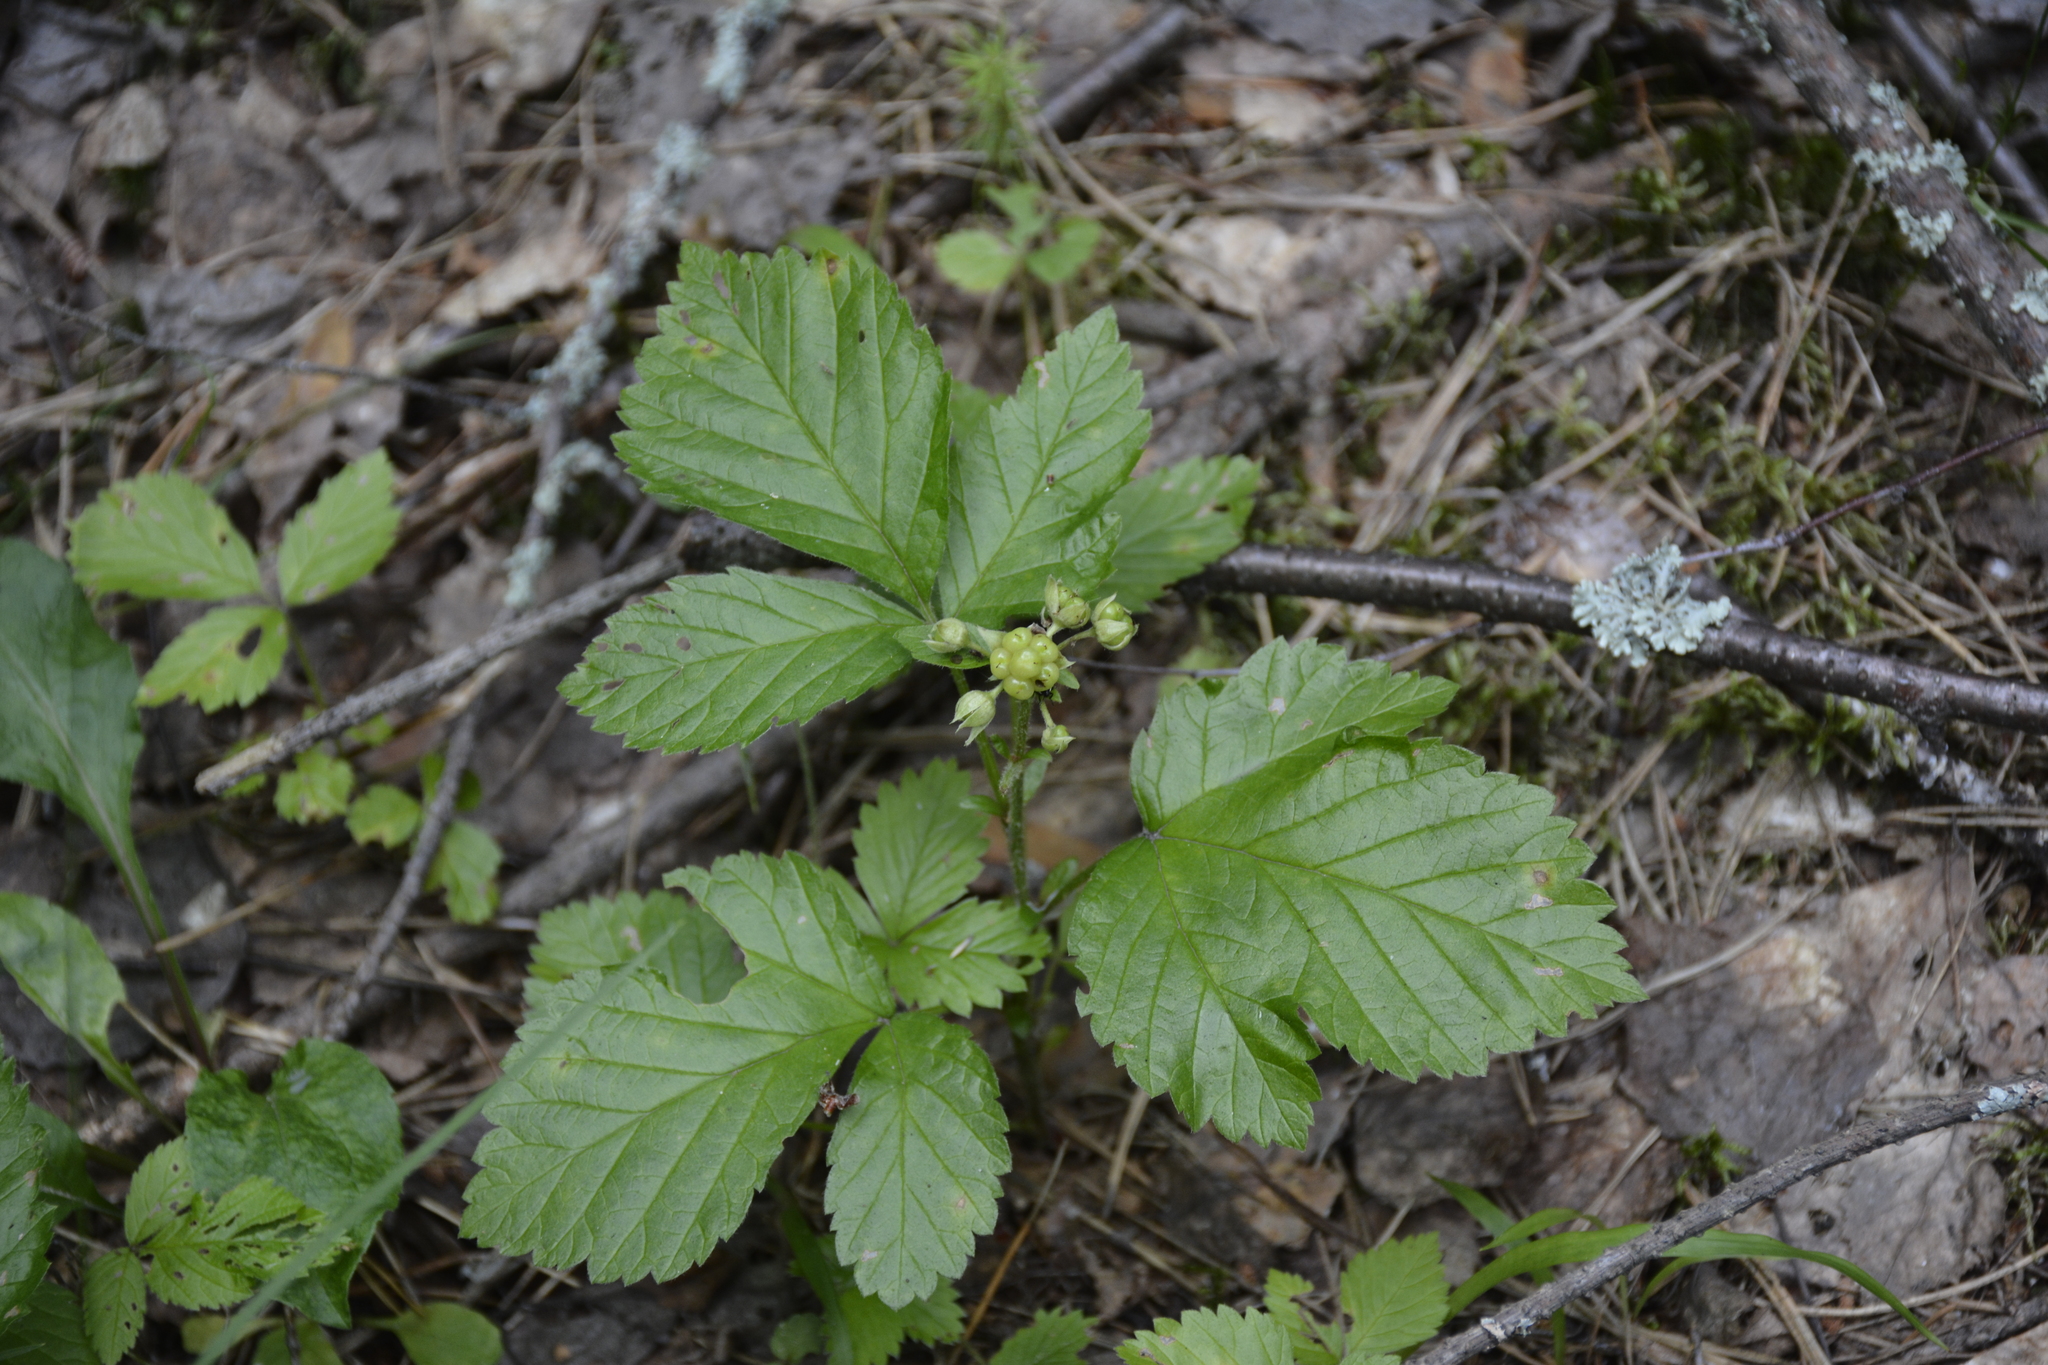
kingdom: Plantae
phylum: Tracheophyta
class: Magnoliopsida
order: Rosales
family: Rosaceae
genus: Rubus
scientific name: Rubus saxatilis
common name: Stone bramble
